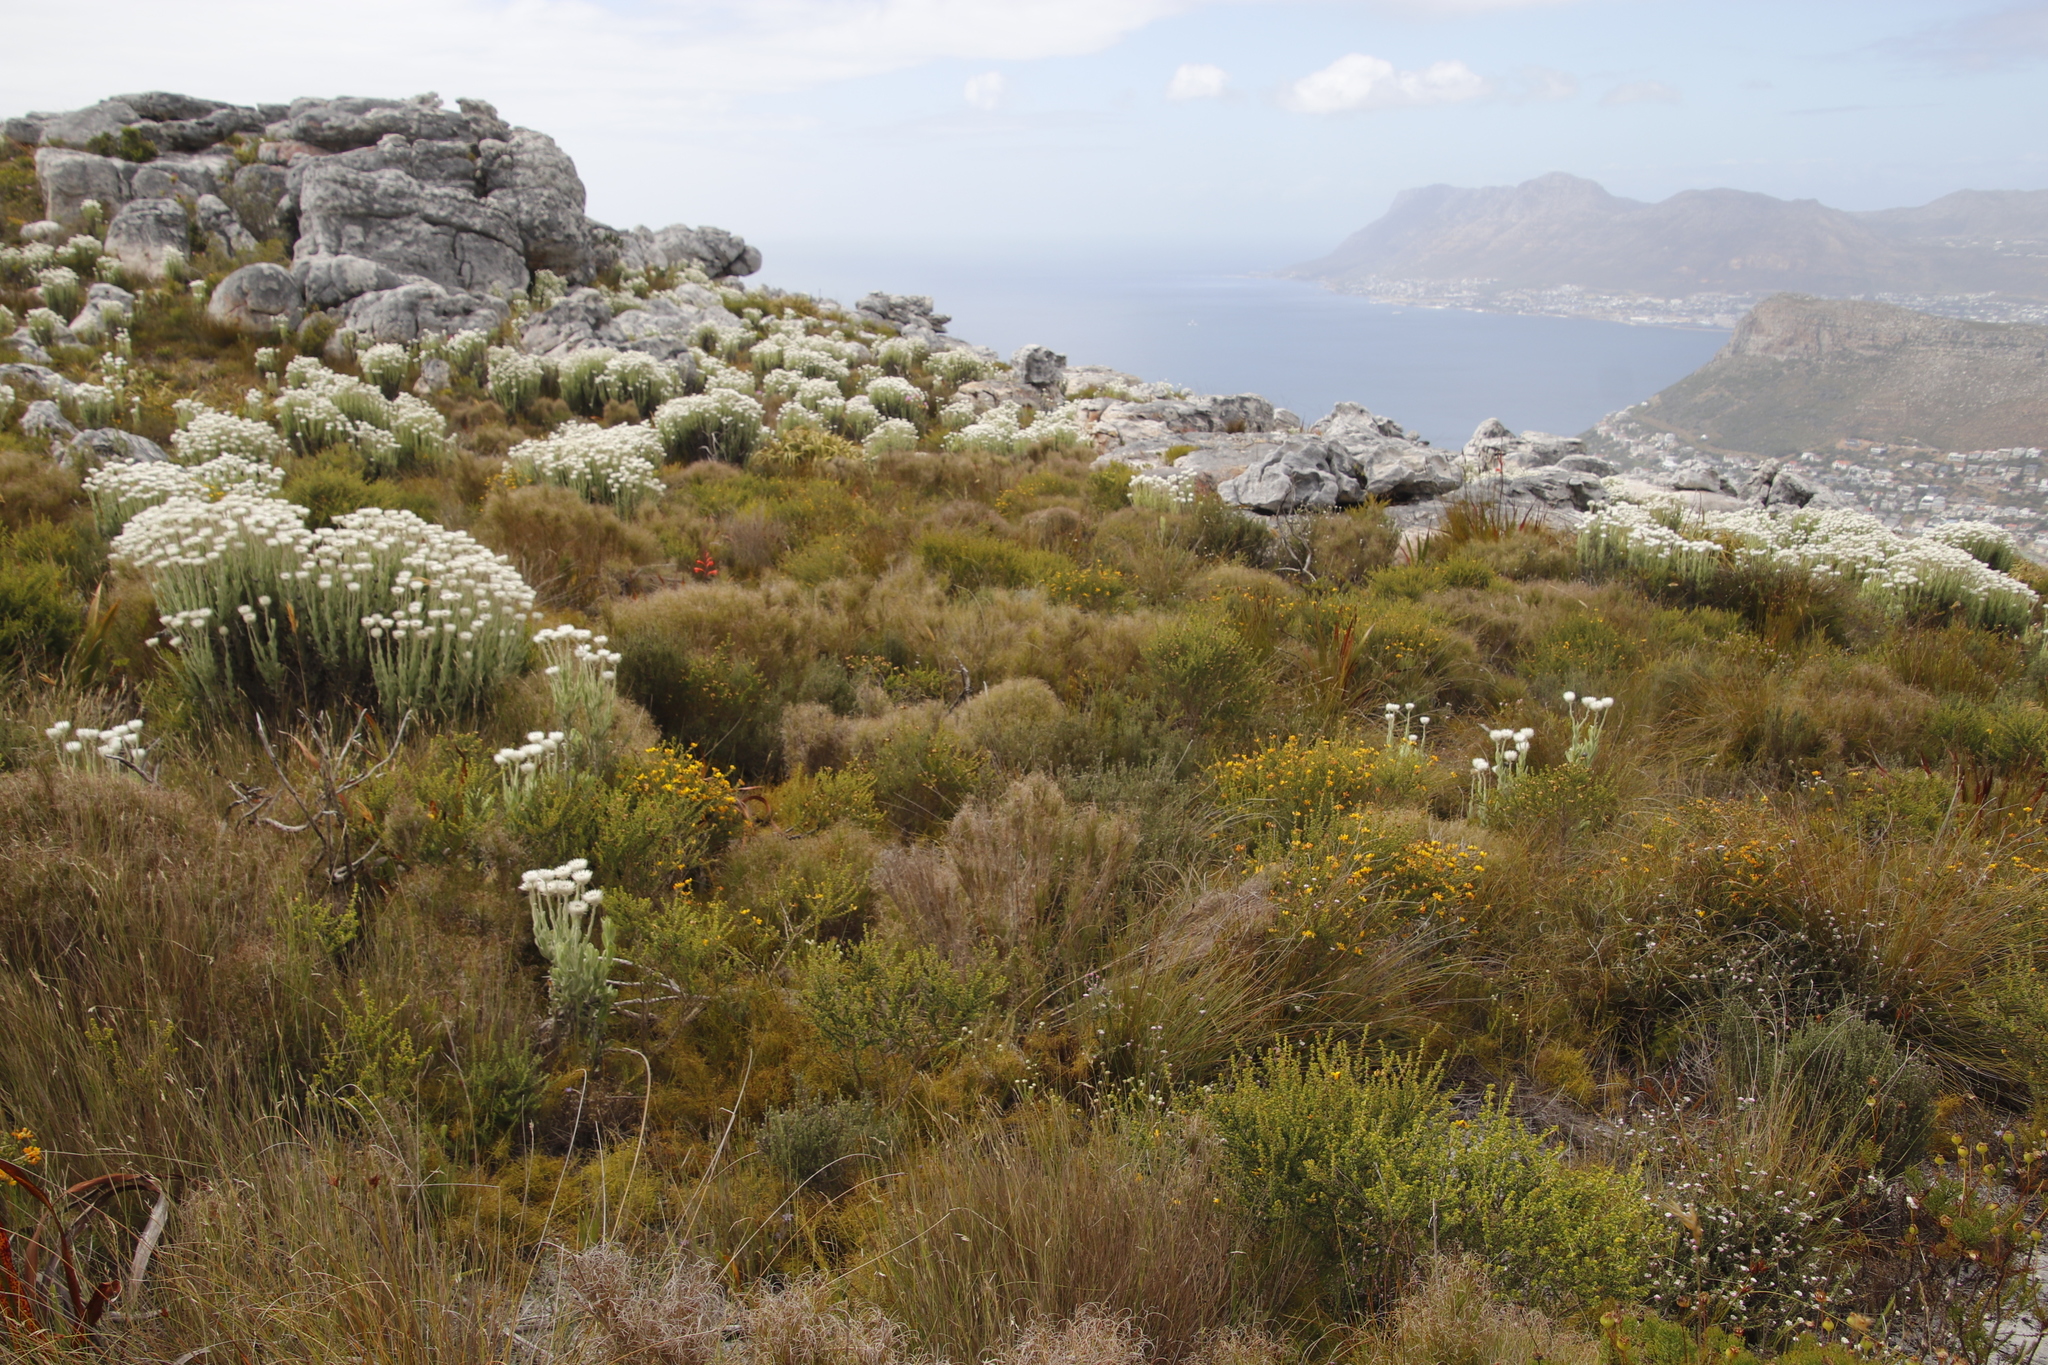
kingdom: Plantae
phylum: Tracheophyta
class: Liliopsida
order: Poales
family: Poaceae
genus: Pseudopentameris
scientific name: Pseudopentameris macrantha
